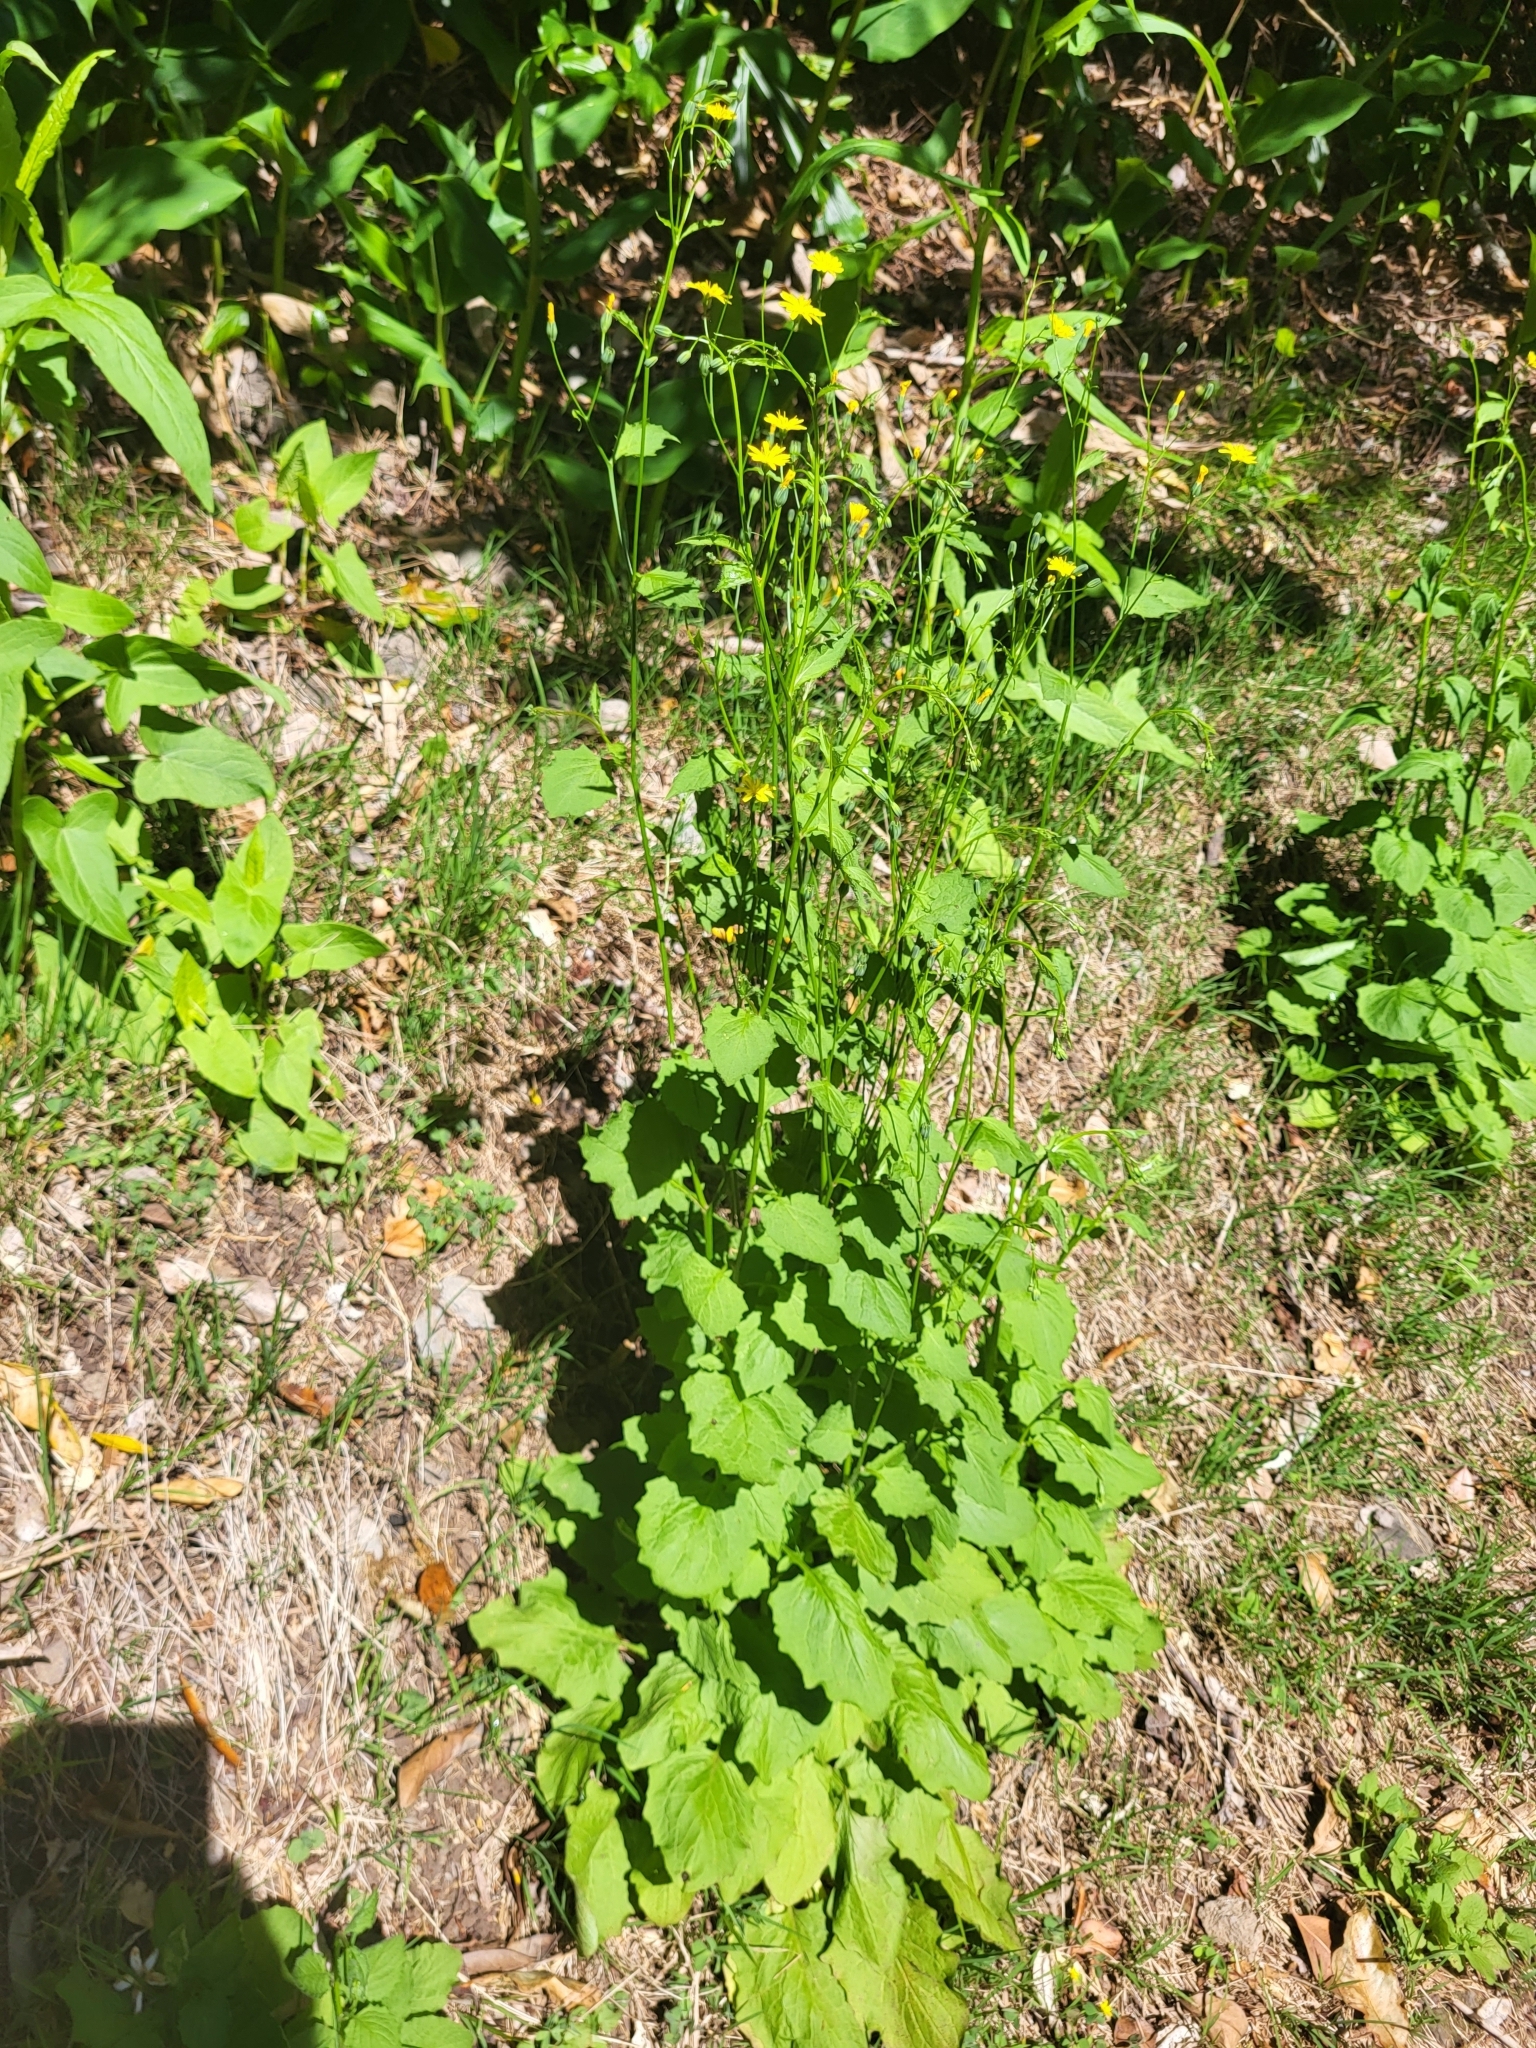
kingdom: Plantae
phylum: Tracheophyta
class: Magnoliopsida
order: Asterales
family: Asteraceae
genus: Lapsana
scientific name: Lapsana communis
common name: Nipplewort
